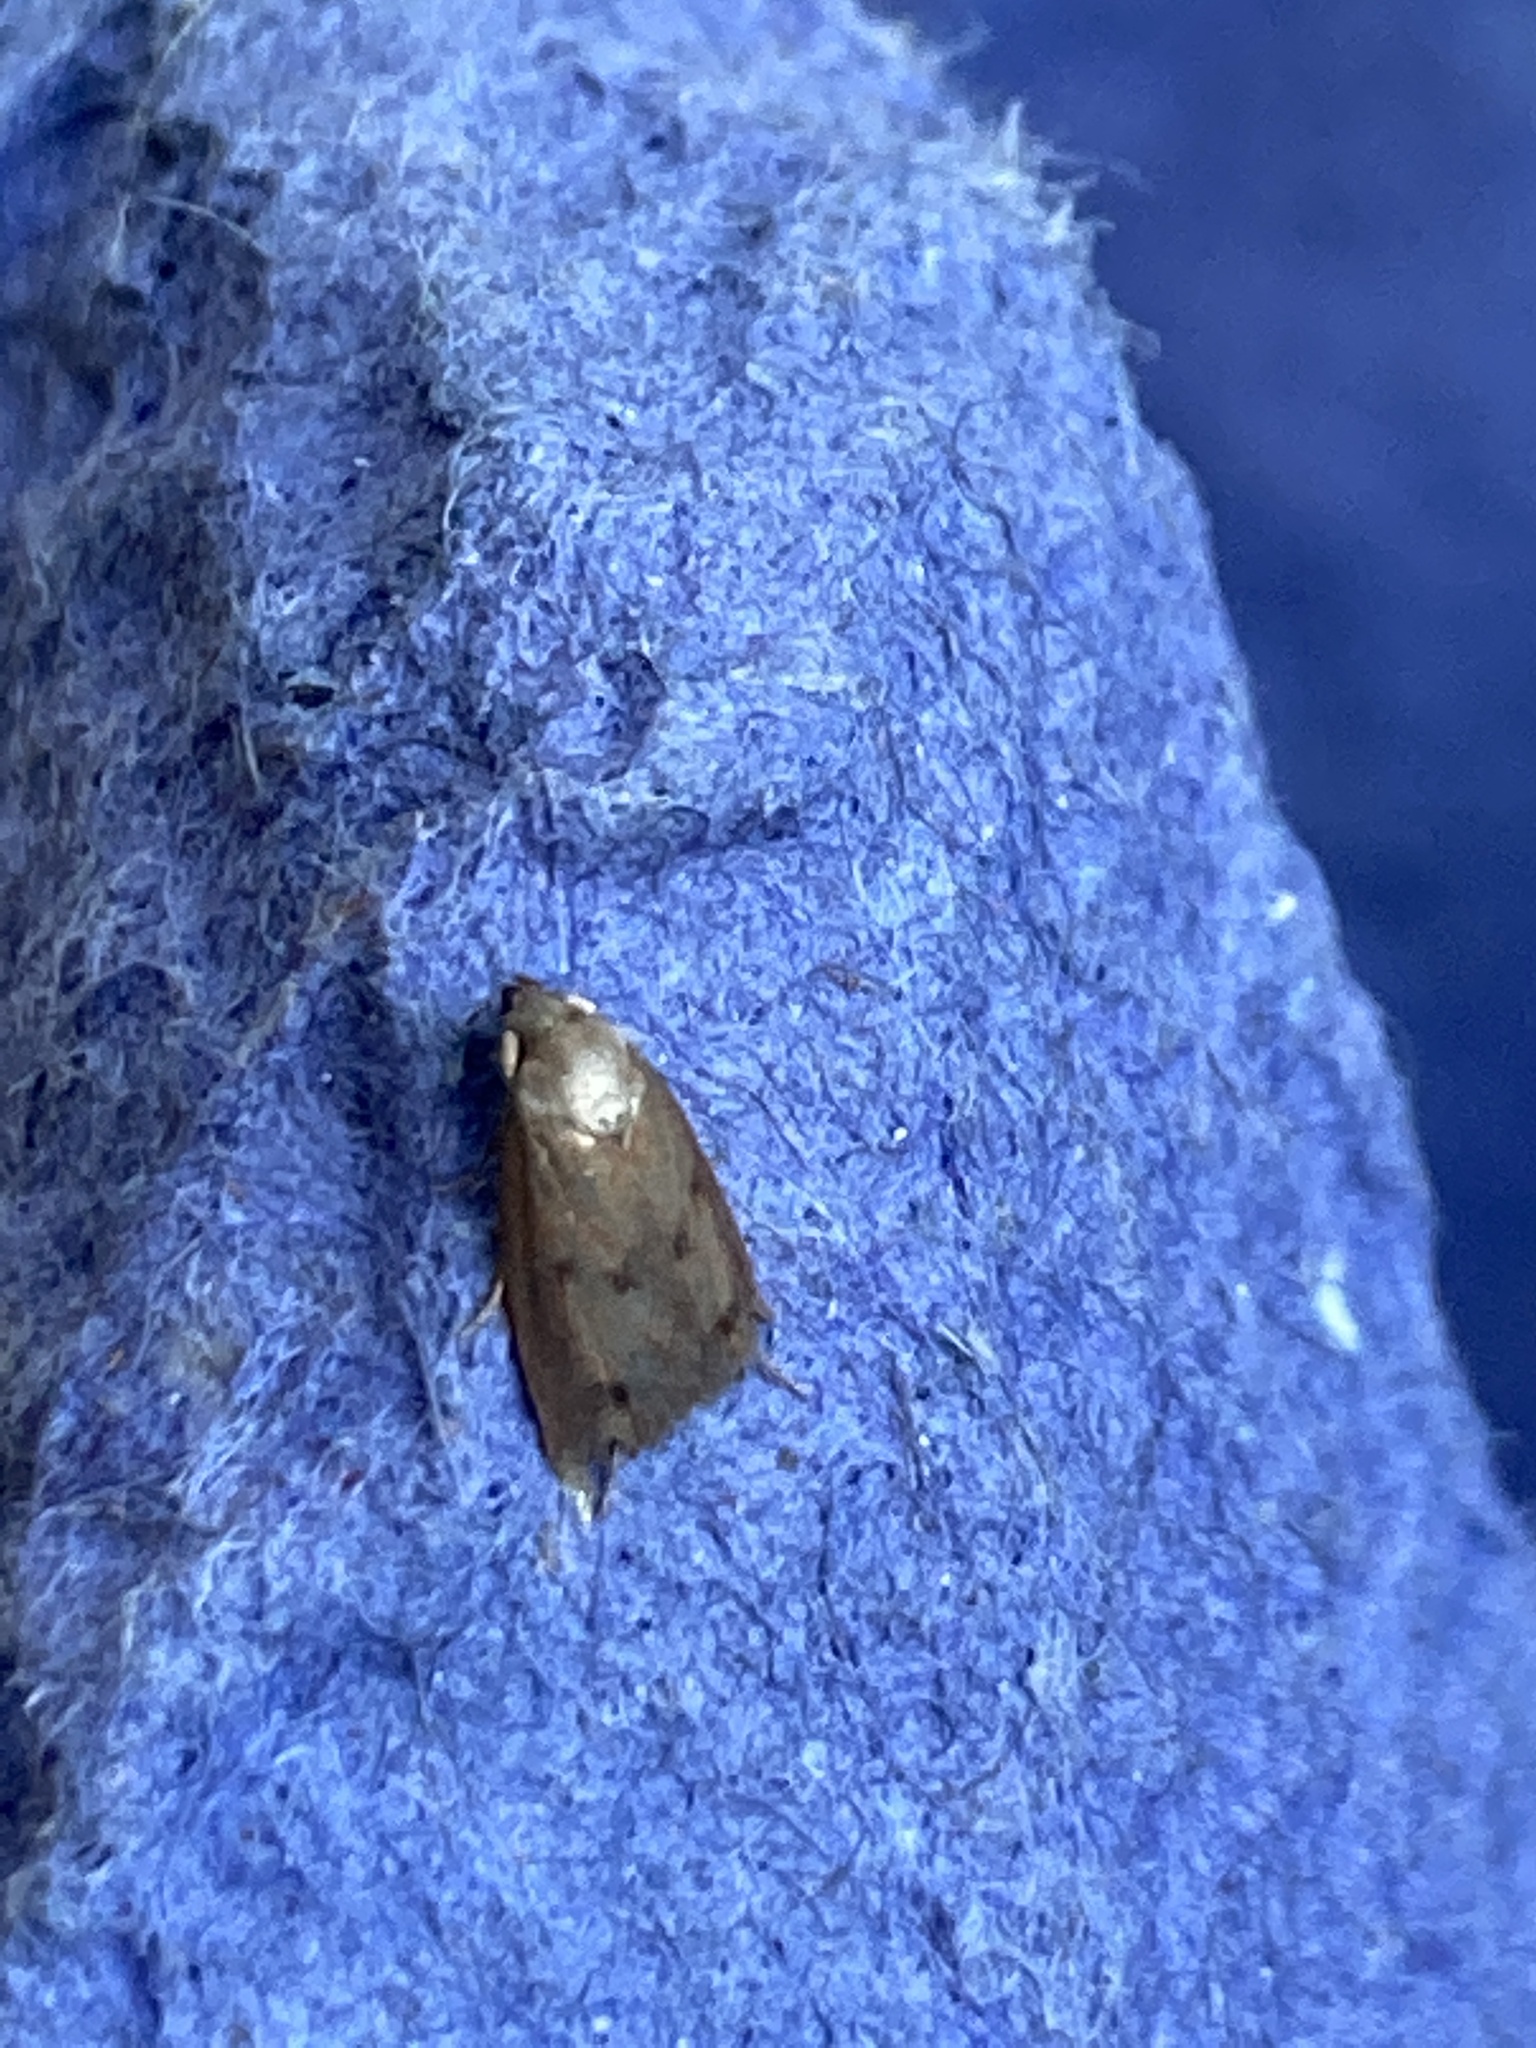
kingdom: Animalia
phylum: Arthropoda
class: Insecta
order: Lepidoptera
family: Oecophoridae
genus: Tachystola
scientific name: Tachystola acroxantha
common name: Ruddy streak
